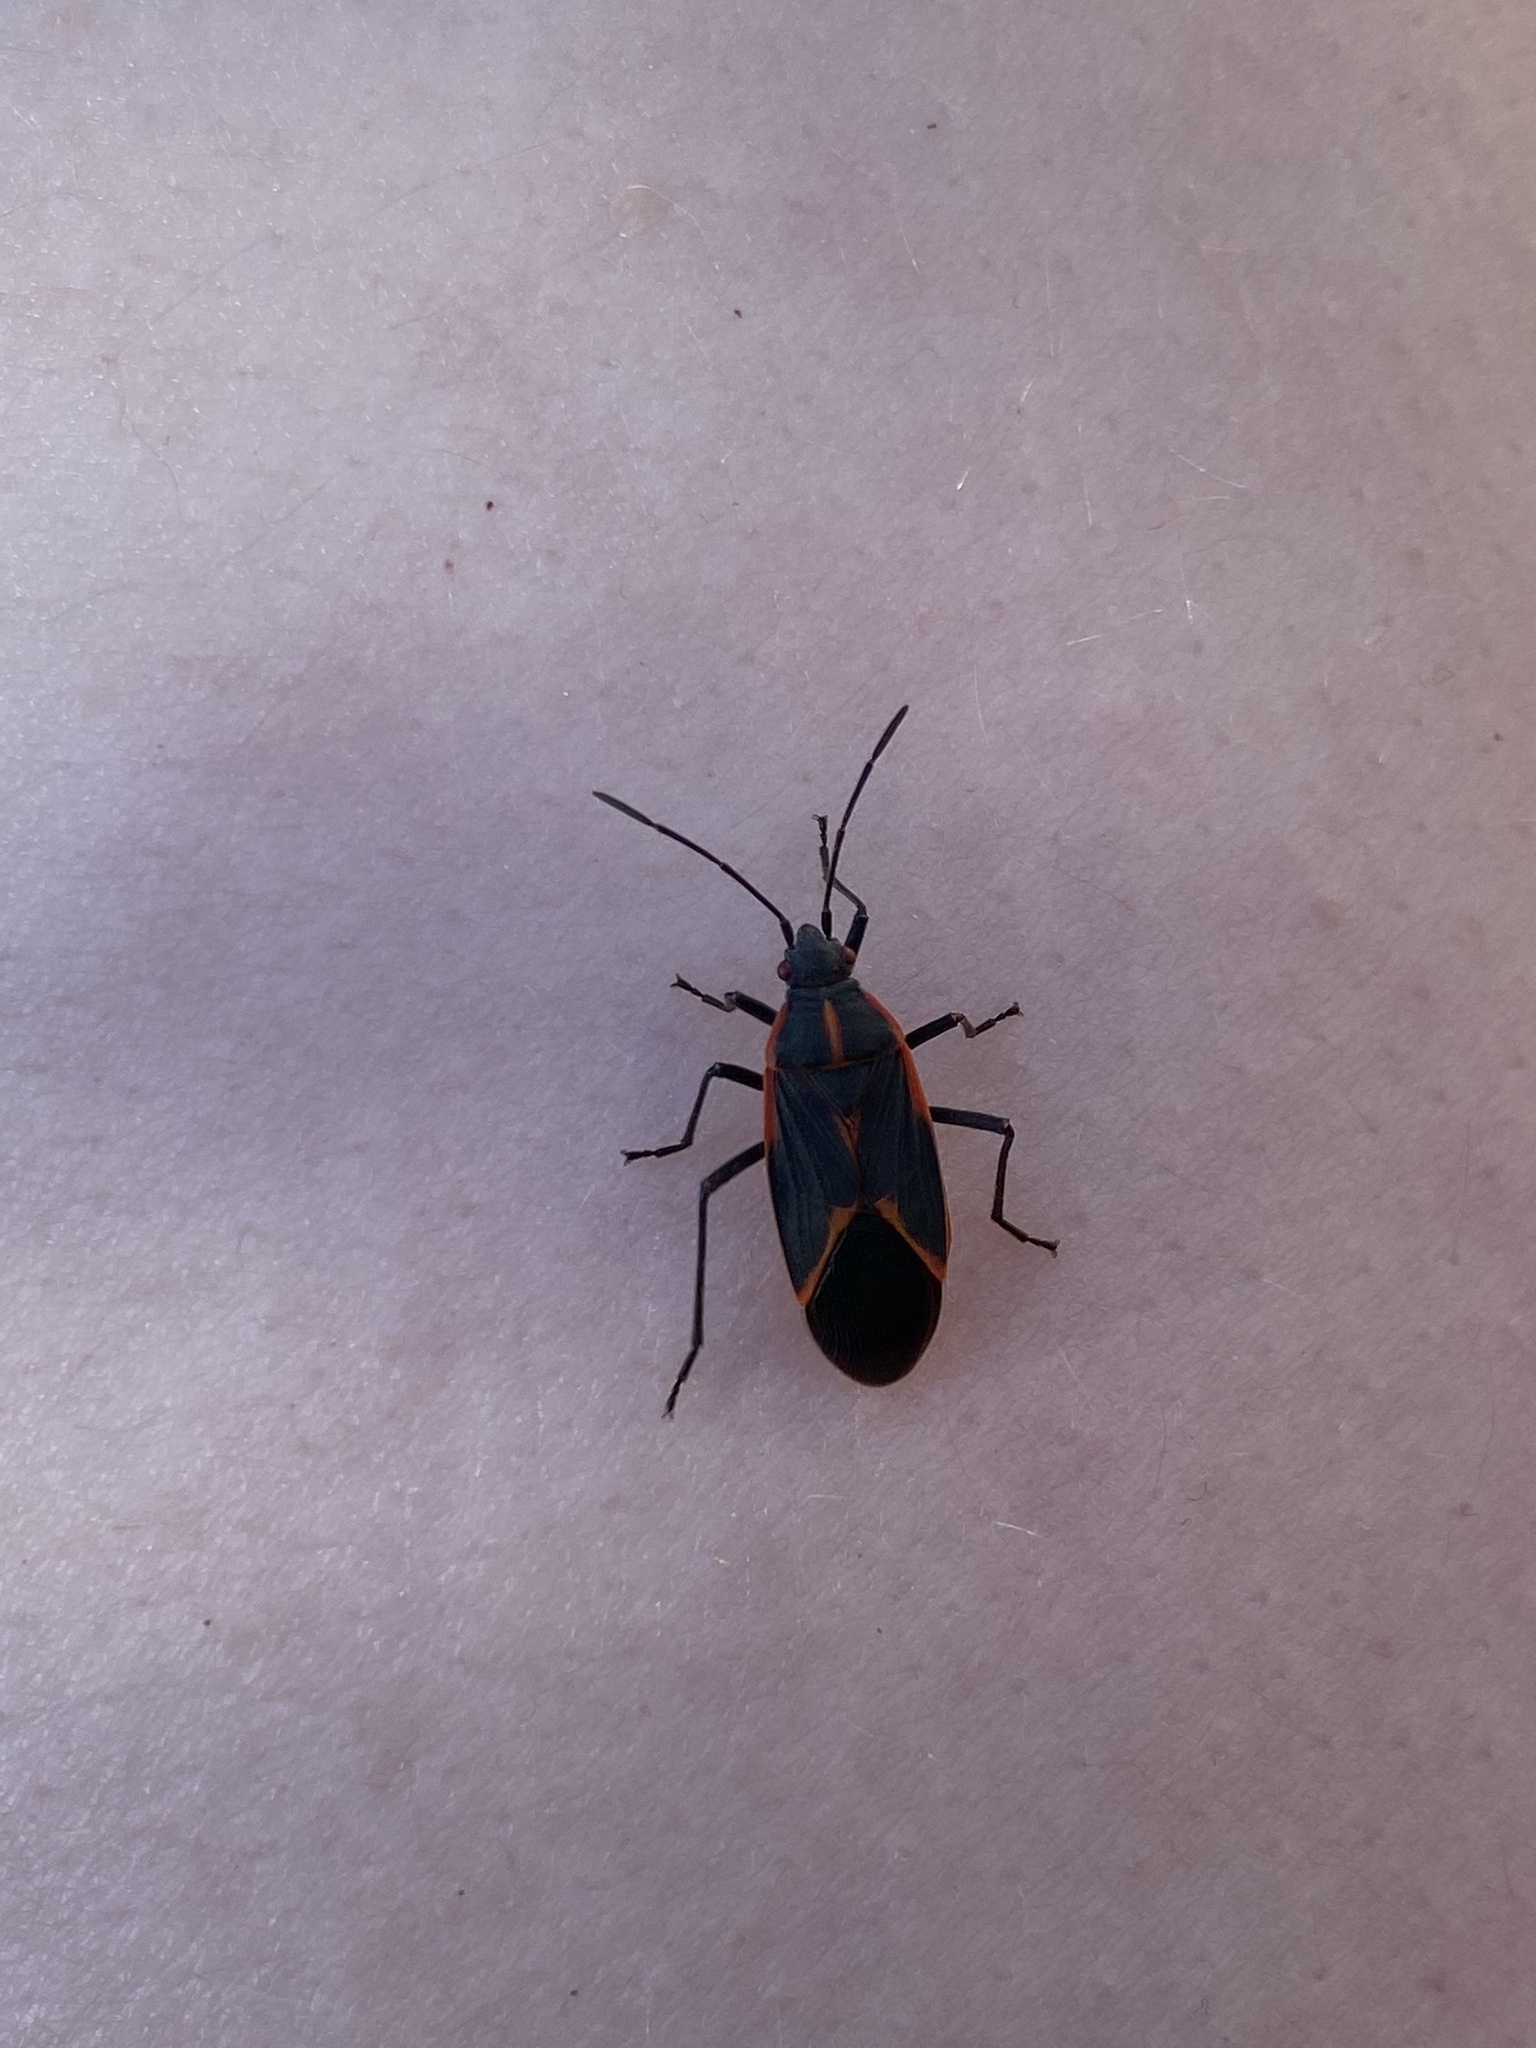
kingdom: Animalia
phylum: Arthropoda
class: Insecta
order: Hemiptera
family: Rhopalidae
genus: Boisea
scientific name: Boisea trivittata
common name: Boxelder bug
